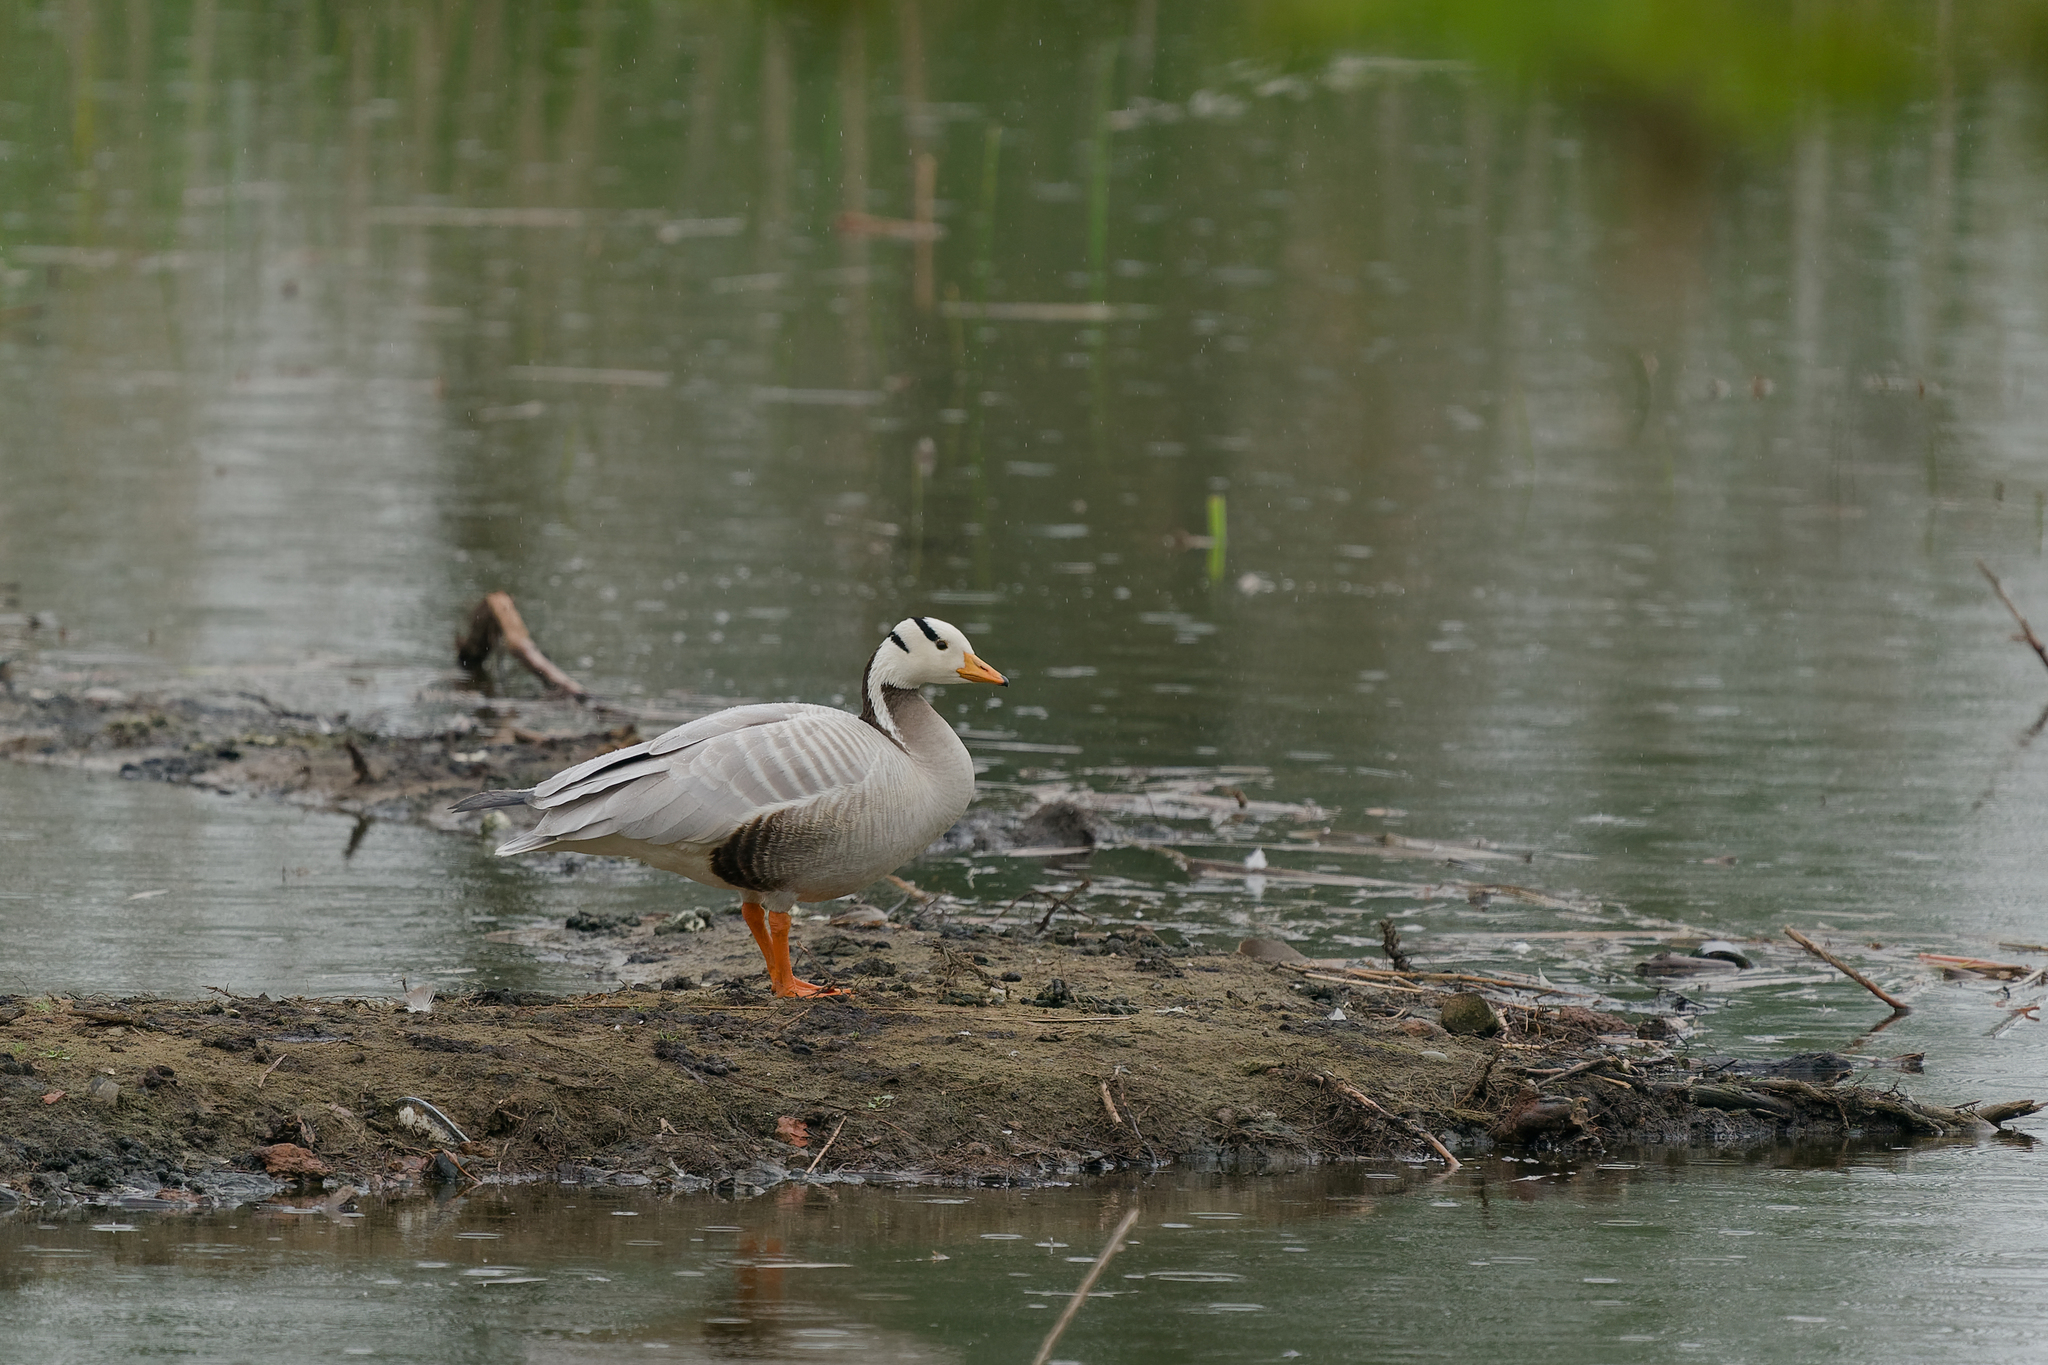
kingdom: Animalia
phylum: Chordata
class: Aves
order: Anseriformes
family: Anatidae
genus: Anser
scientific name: Anser indicus
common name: Bar-headed goose
